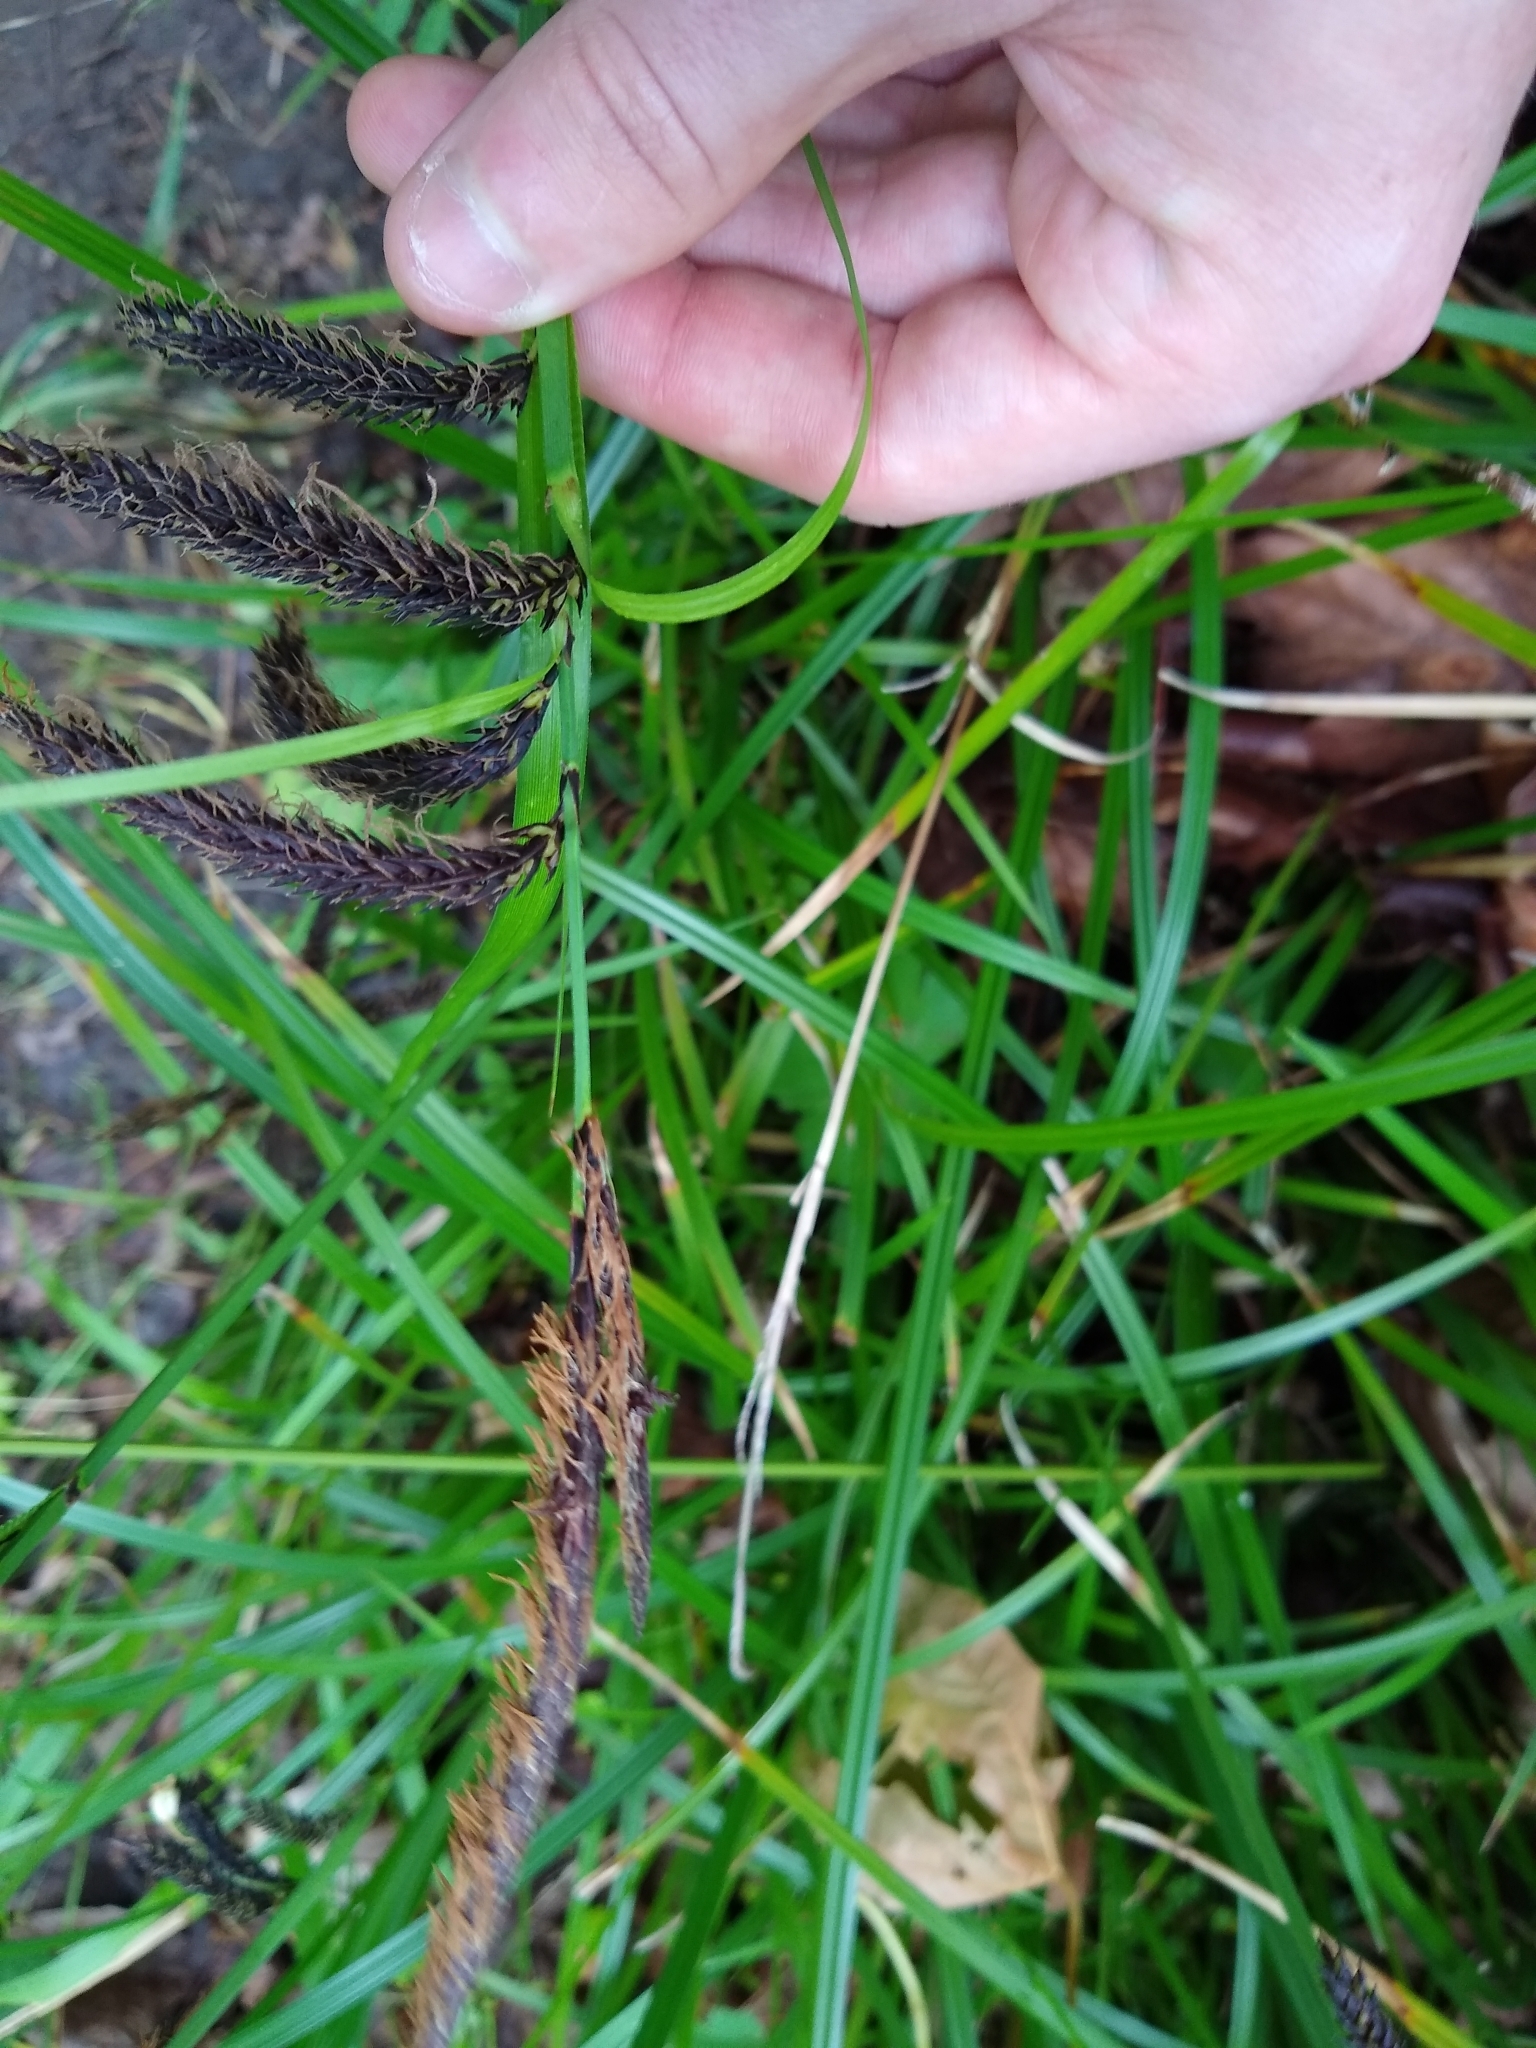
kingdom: Plantae
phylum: Tracheophyta
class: Liliopsida
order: Poales
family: Cyperaceae
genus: Carex
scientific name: Carex obnupta
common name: Slough sedge
